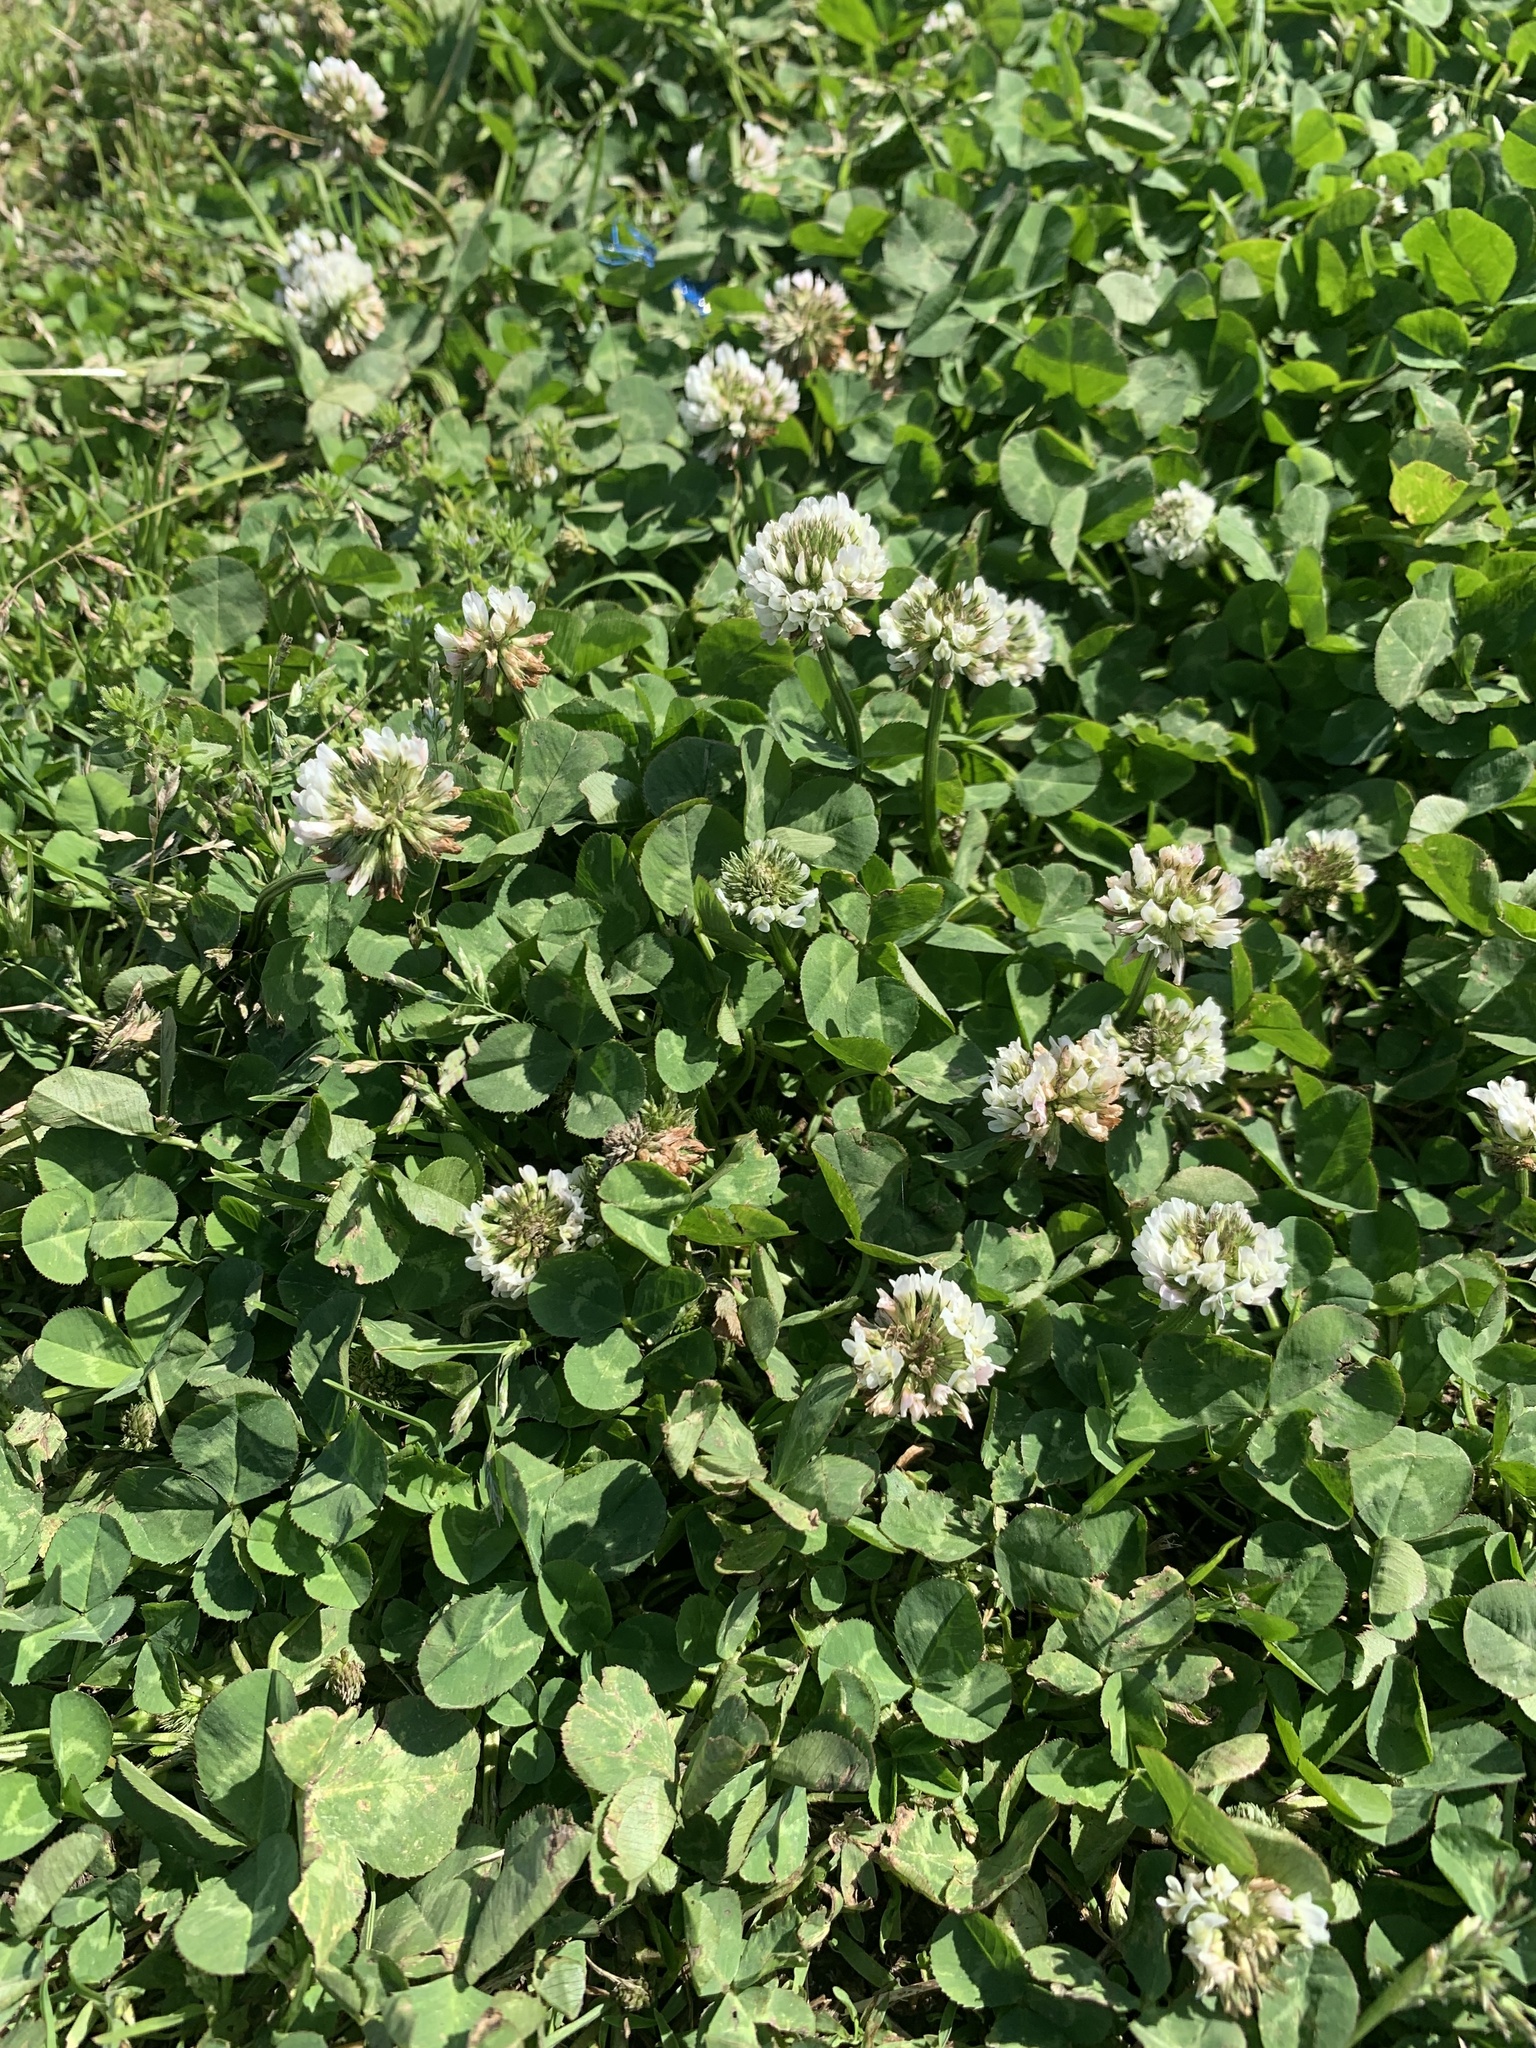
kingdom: Plantae
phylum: Tracheophyta
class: Magnoliopsida
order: Fabales
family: Fabaceae
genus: Trifolium
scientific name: Trifolium repens
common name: White clover
